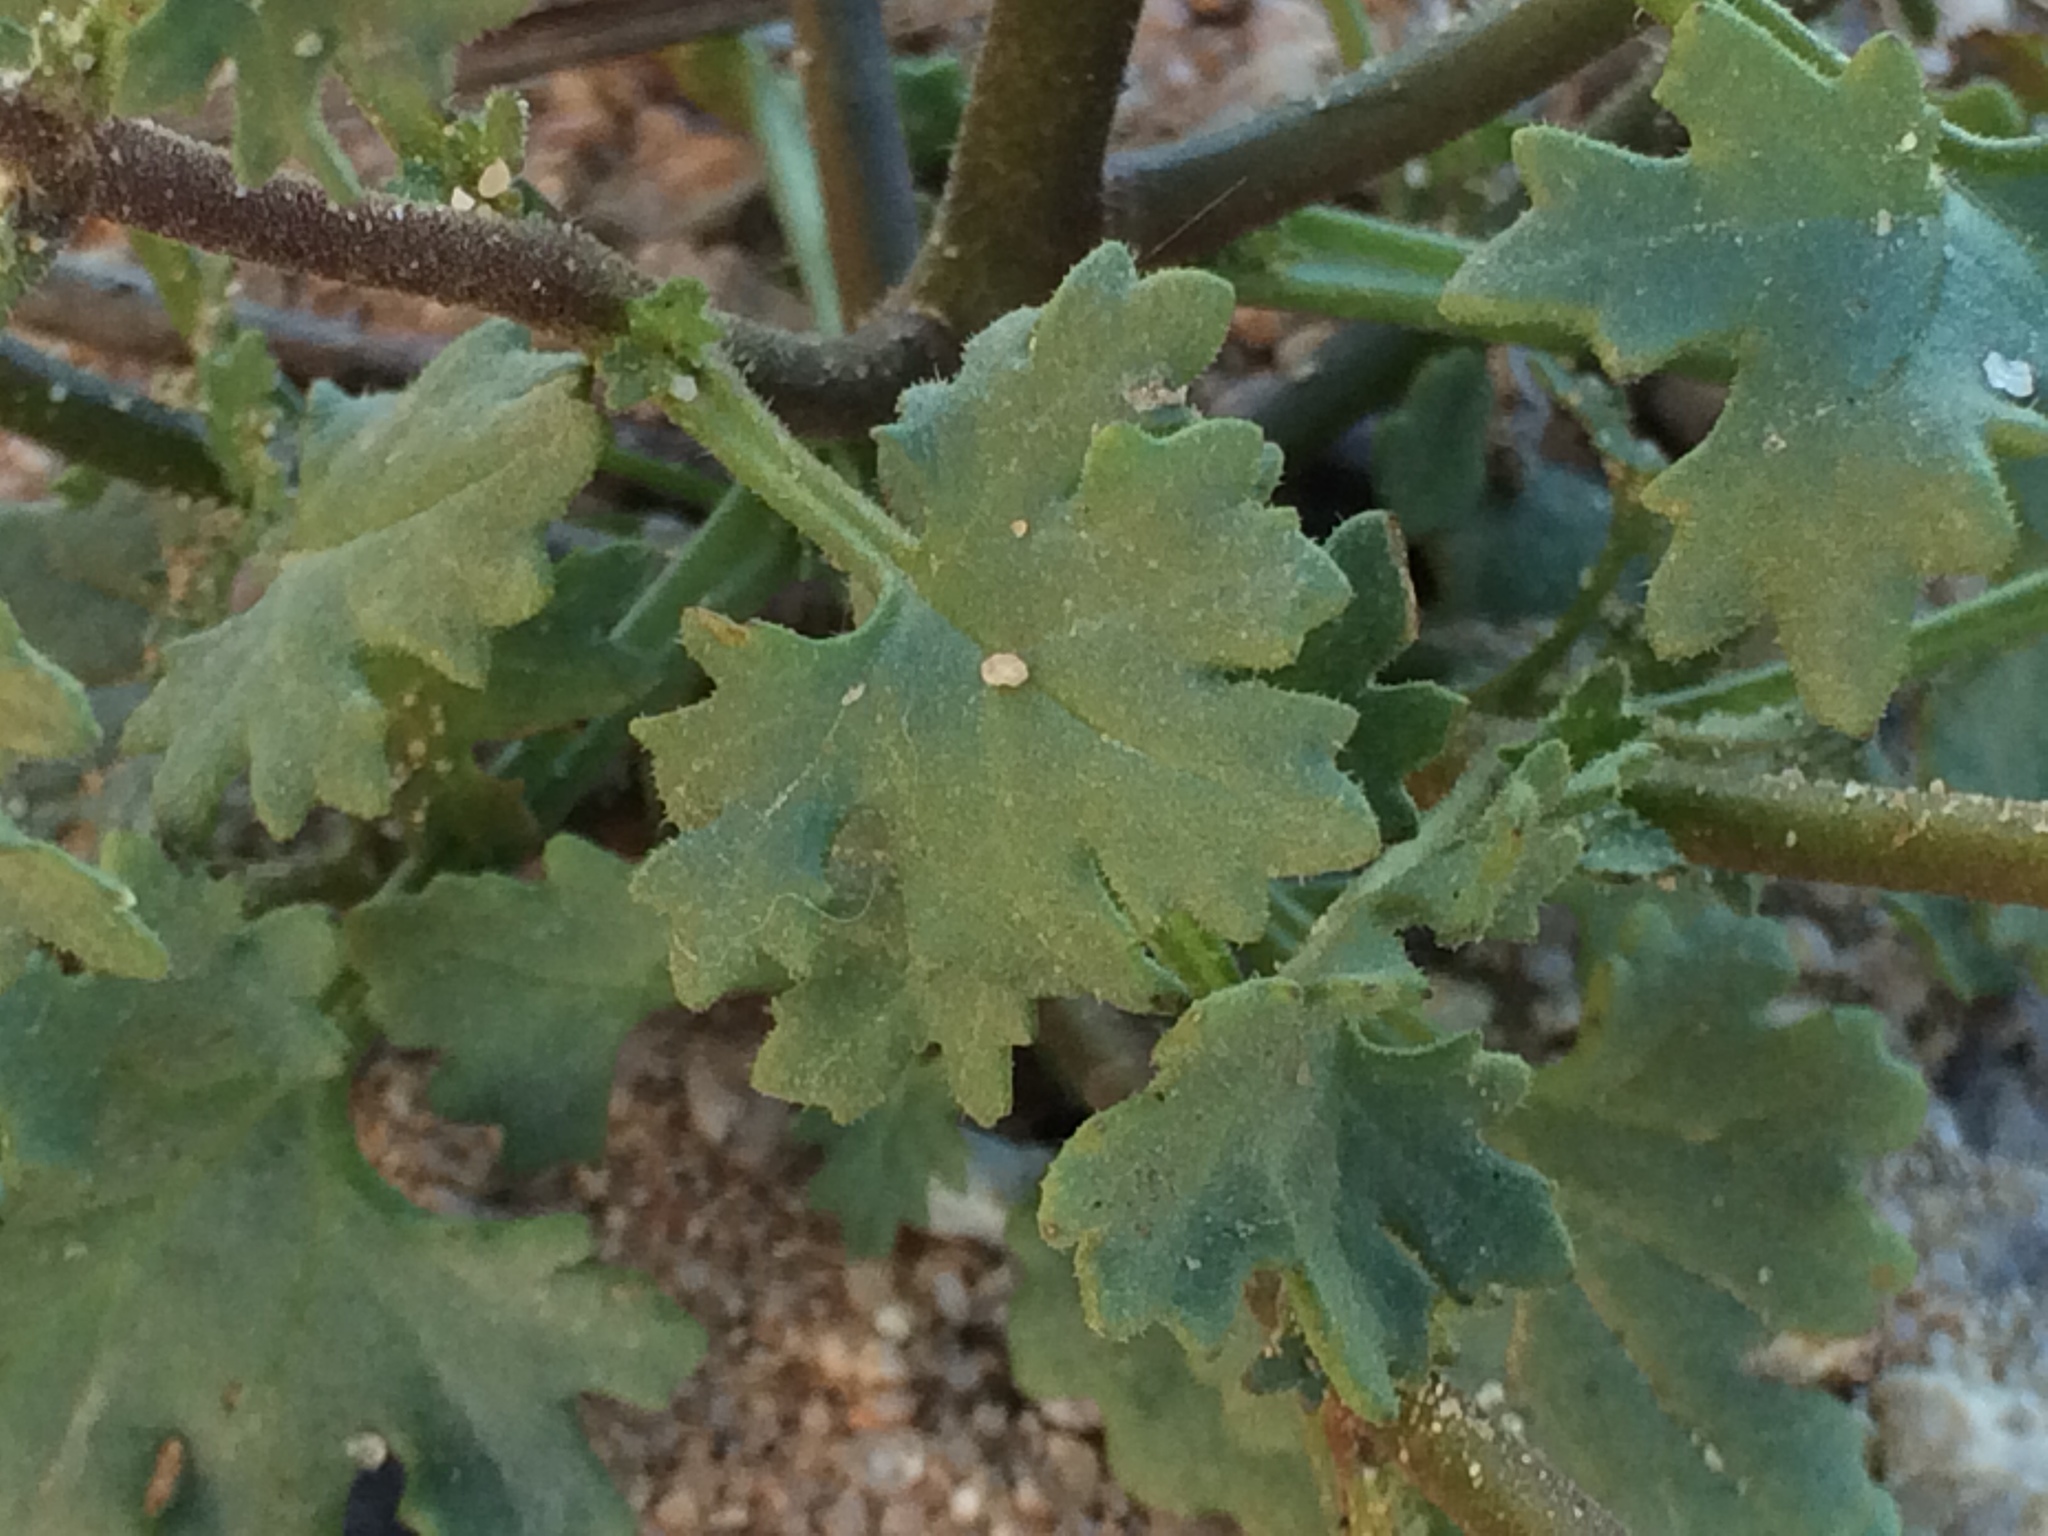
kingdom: Plantae
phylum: Tracheophyta
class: Magnoliopsida
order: Asterales
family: Asteraceae
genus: Laphamia
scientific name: Laphamia emoryi
